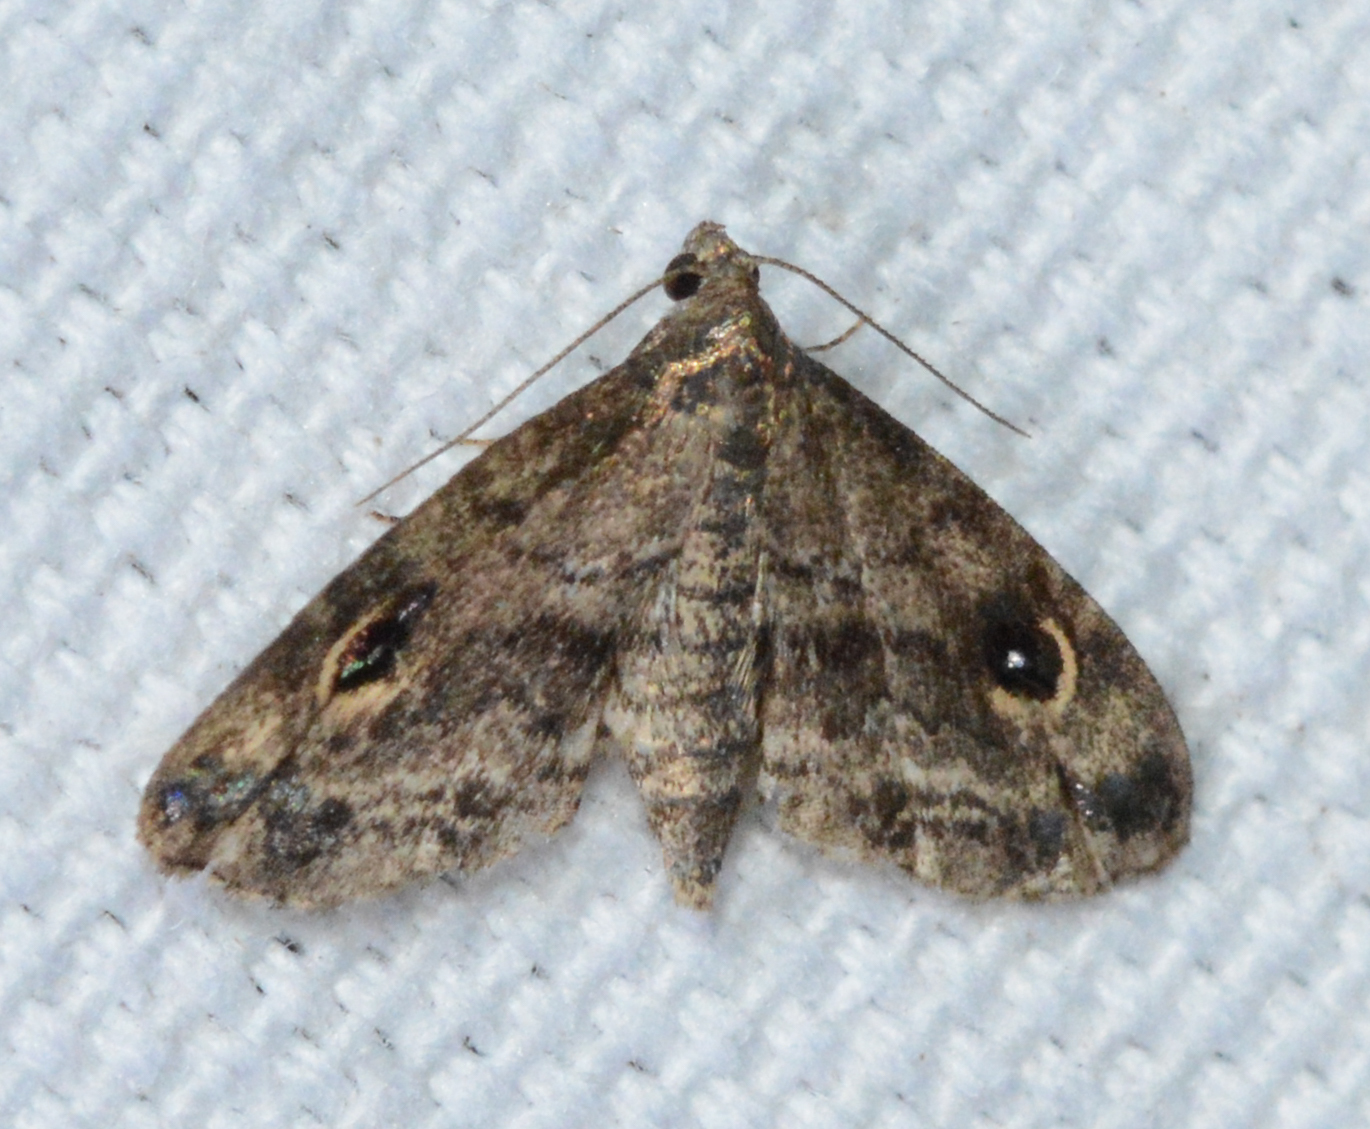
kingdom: Animalia
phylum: Arthropoda
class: Insecta
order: Lepidoptera
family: Erebidae
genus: Melanomma
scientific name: Melanomma auricinctaria
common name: Gold-lined melanomma moth
